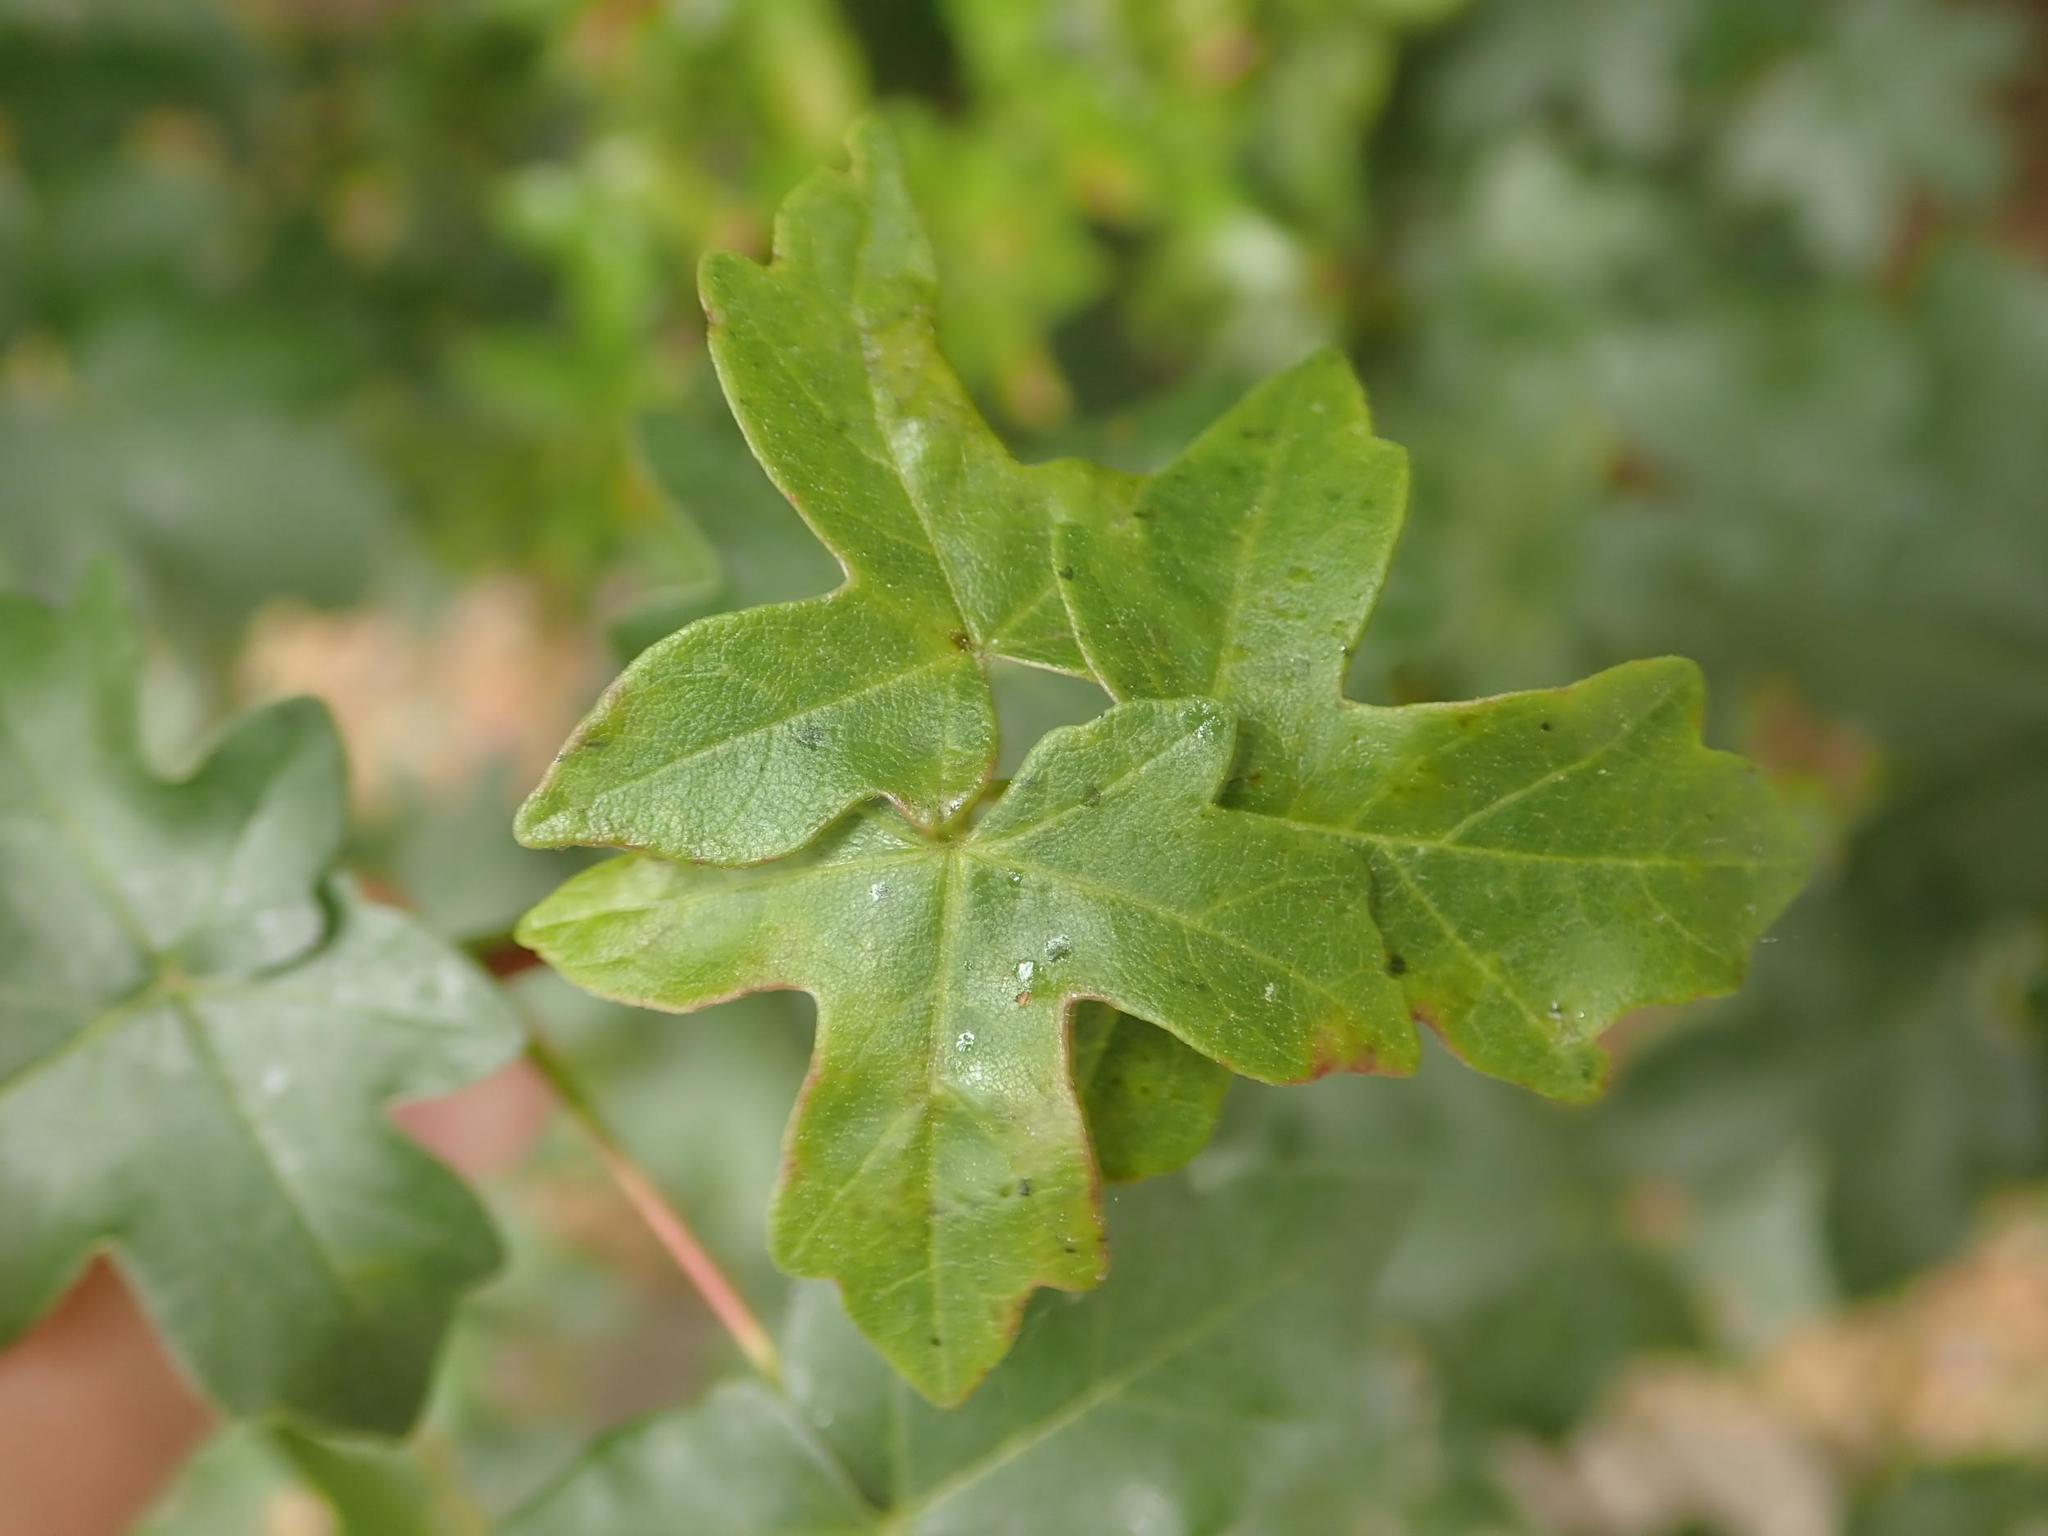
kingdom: Plantae
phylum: Tracheophyta
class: Magnoliopsida
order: Sapindales
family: Sapindaceae
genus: Acer
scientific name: Acer campestre
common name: Field maple
